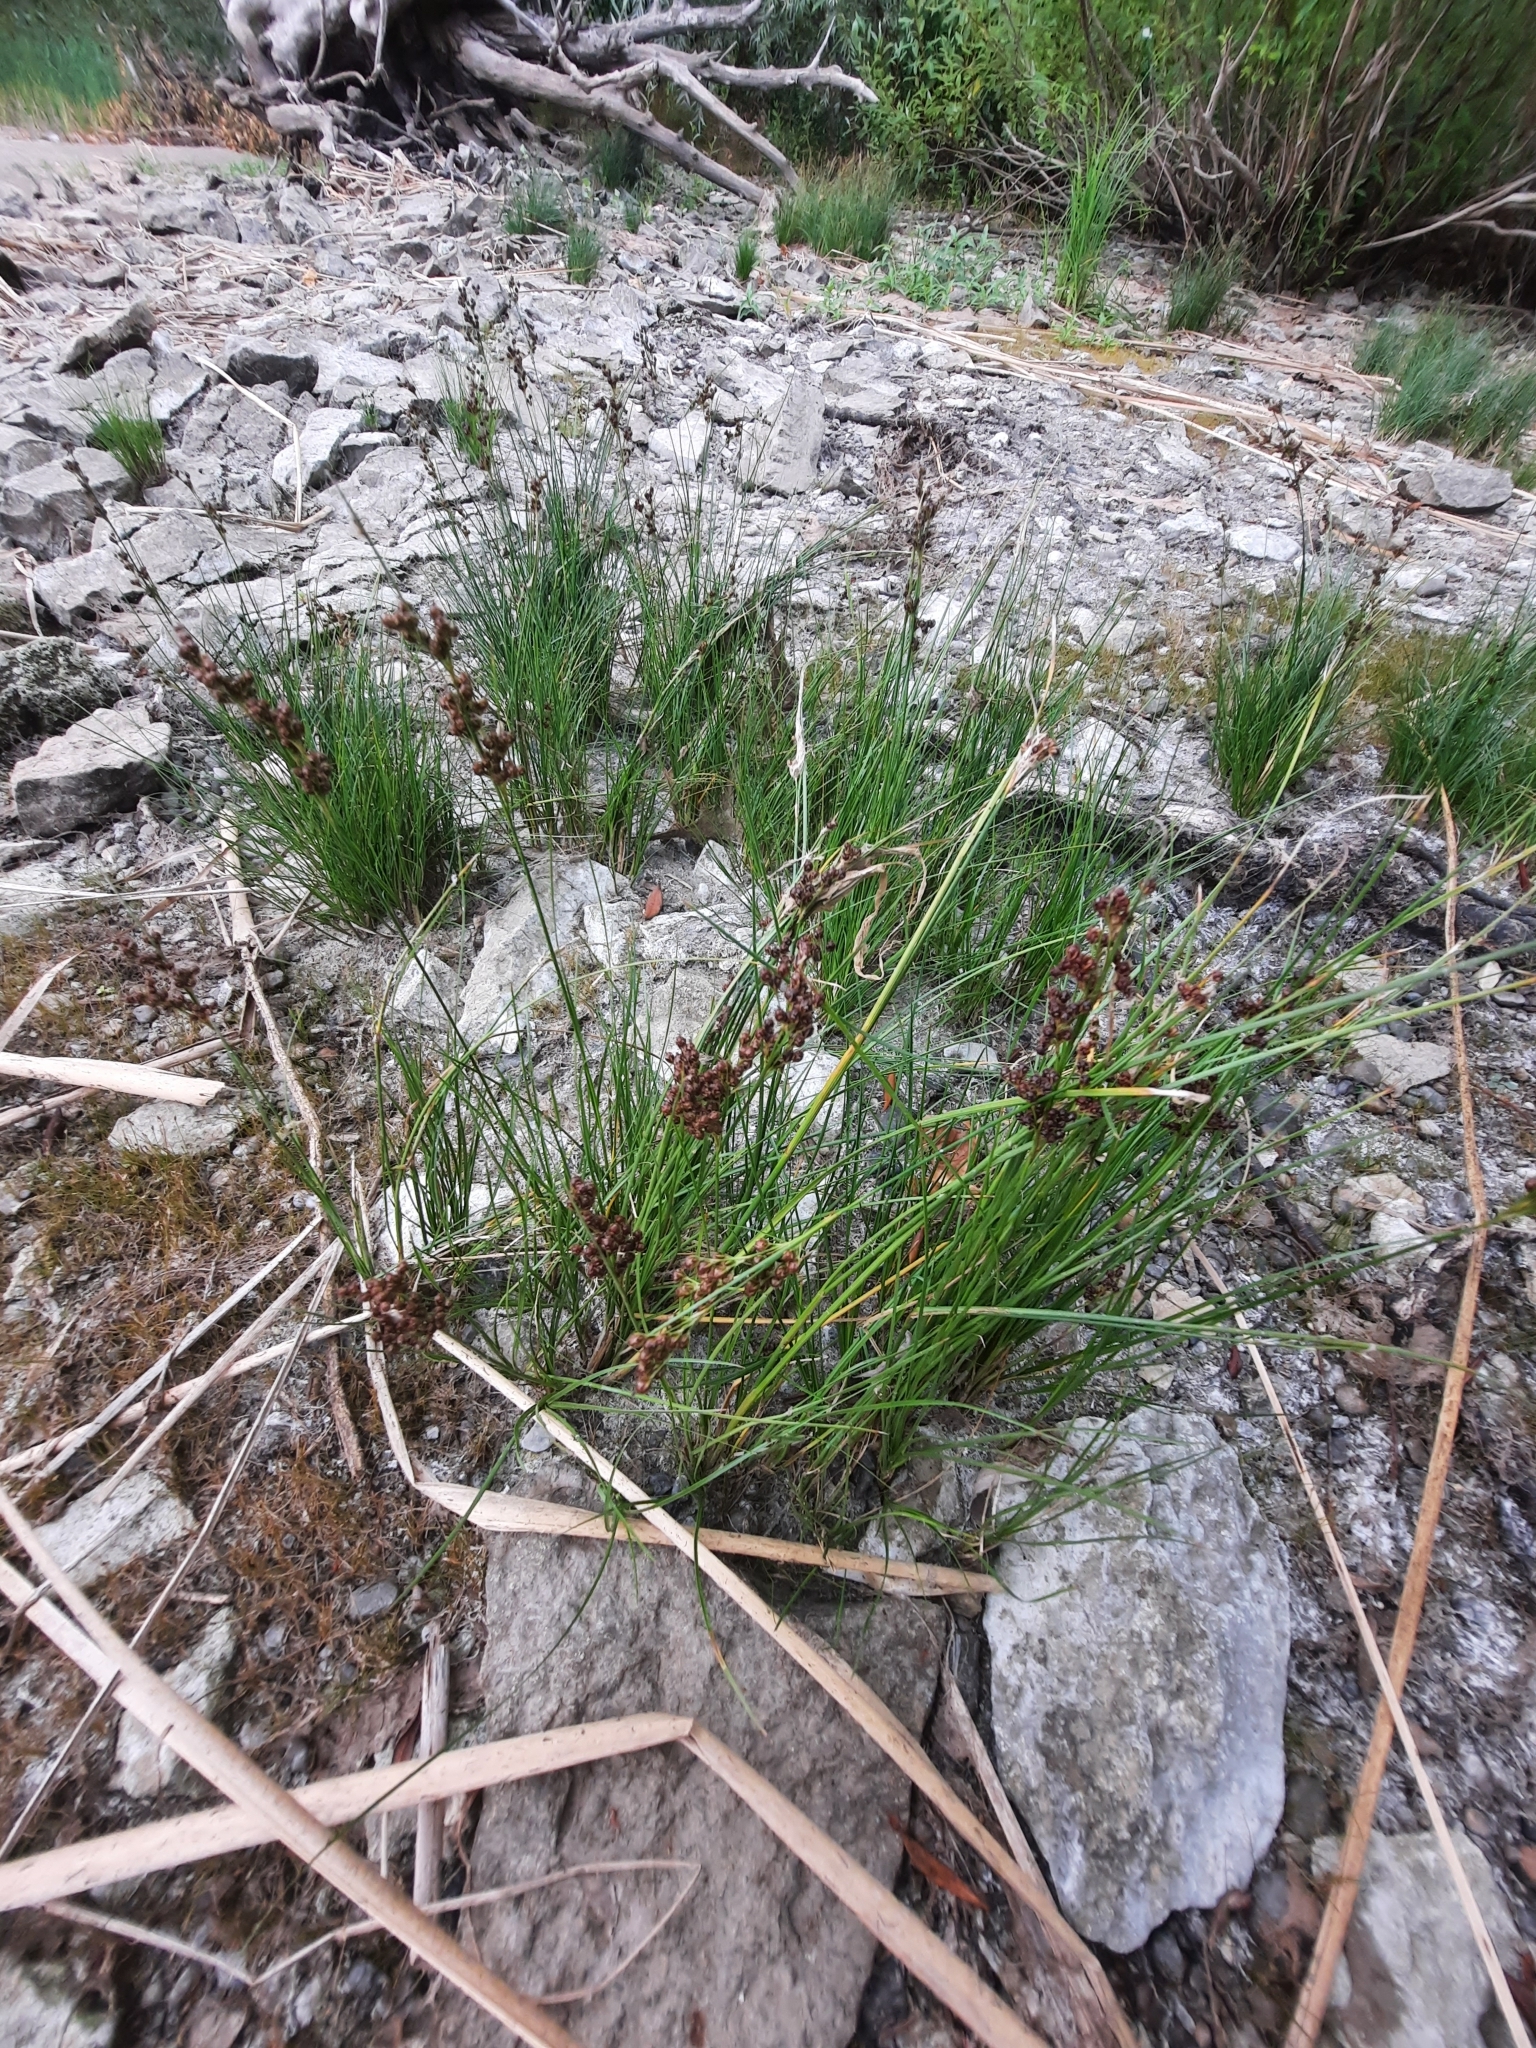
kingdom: Plantae
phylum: Tracheophyta
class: Liliopsida
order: Poales
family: Juncaceae
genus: Juncus
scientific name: Juncus compressus
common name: Round-fruited rush
